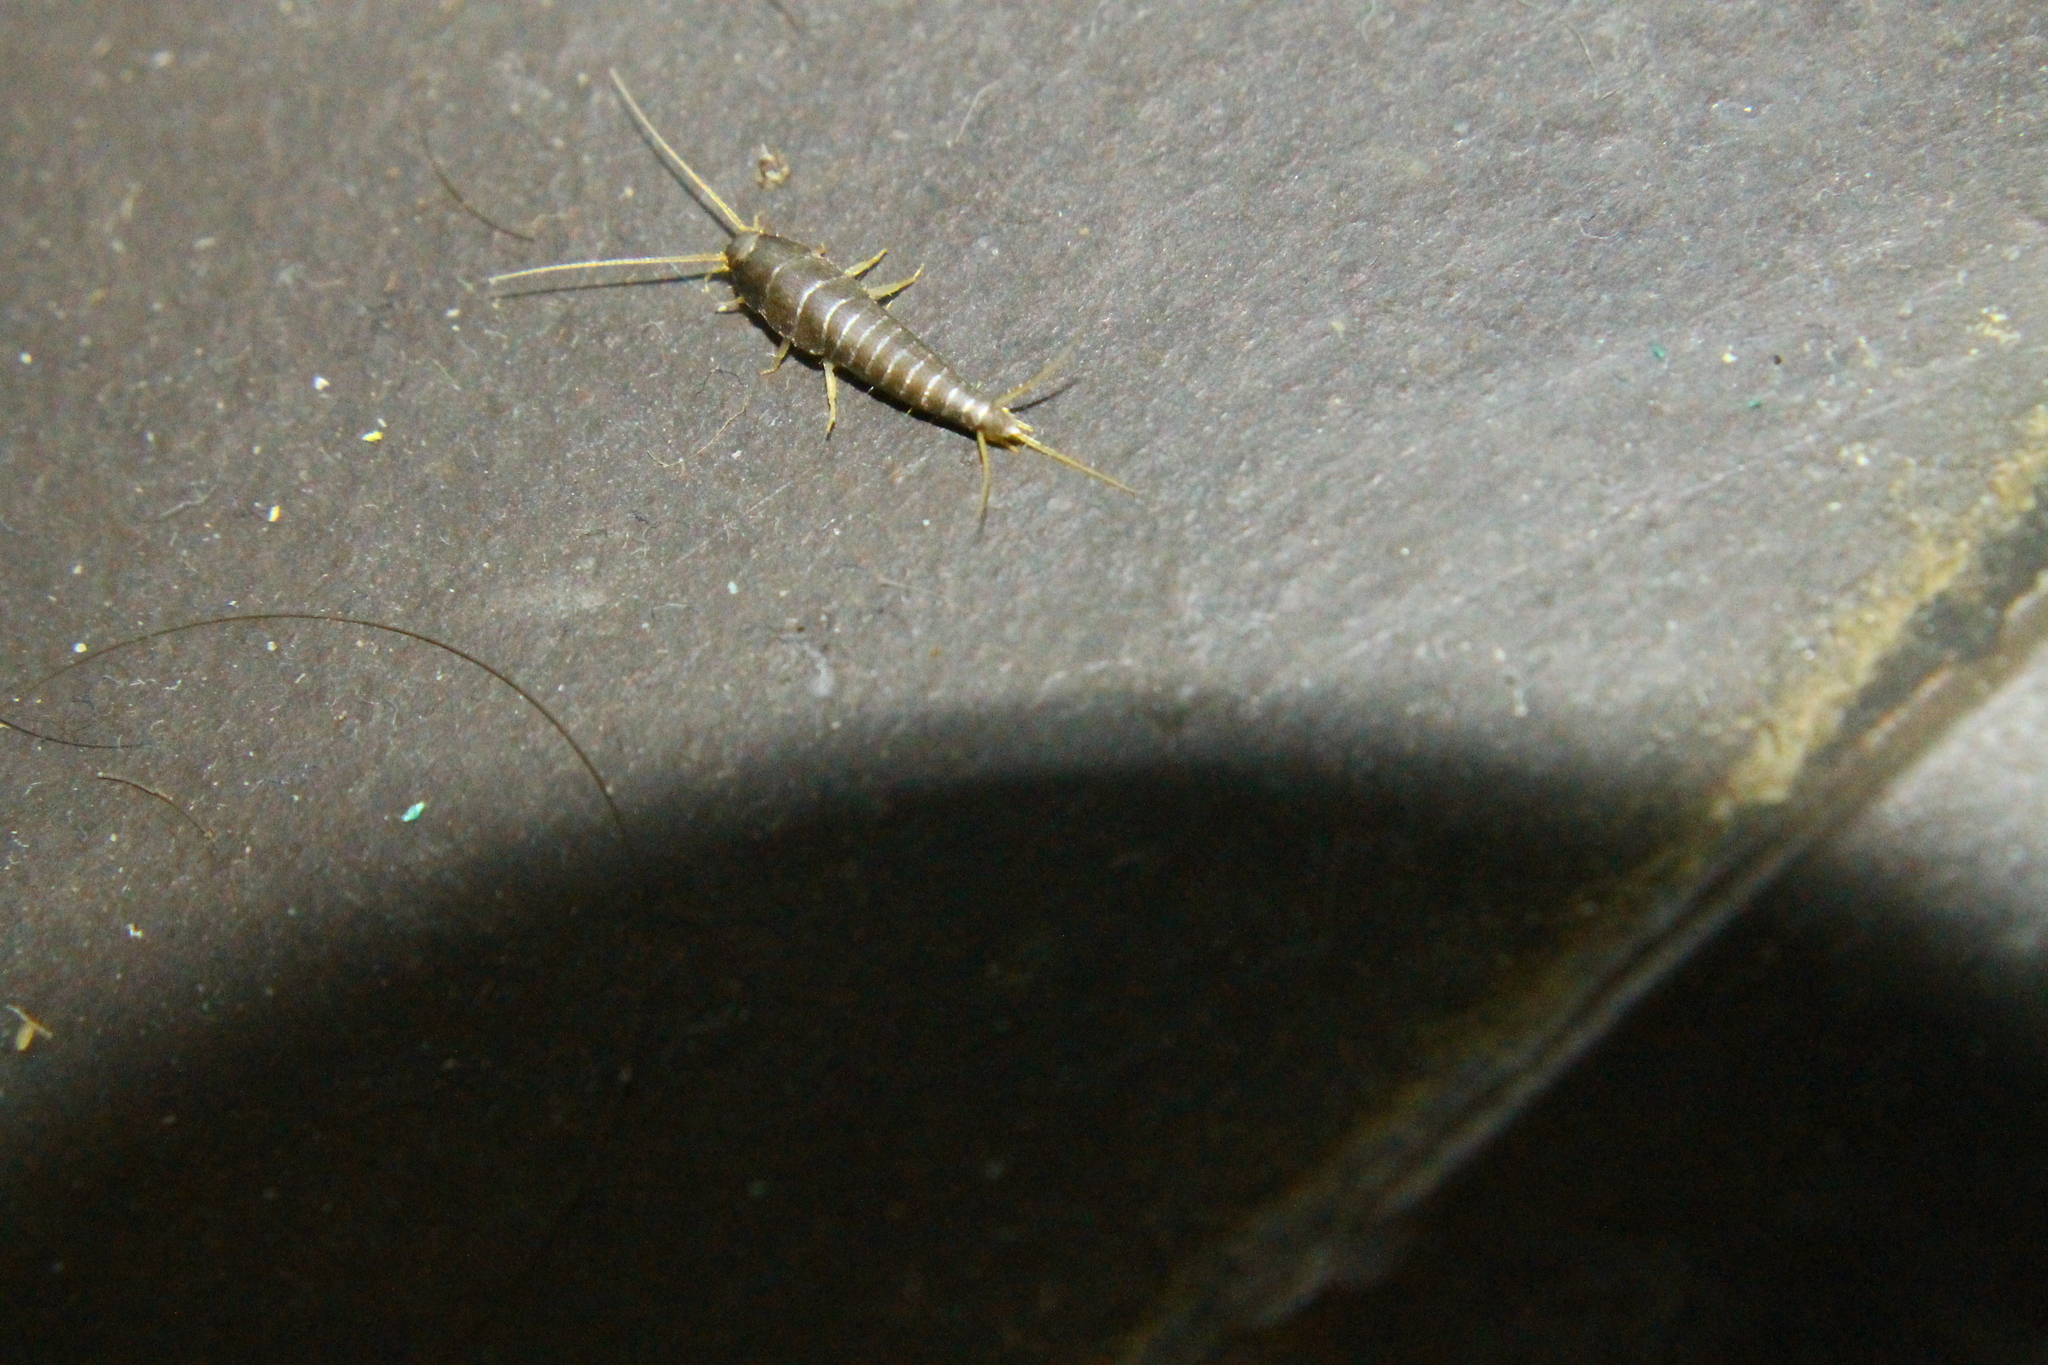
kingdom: Animalia
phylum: Arthropoda
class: Insecta
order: Zygentoma
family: Lepismatidae
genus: Lepisma
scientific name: Lepisma saccharinum
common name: Silverfish
